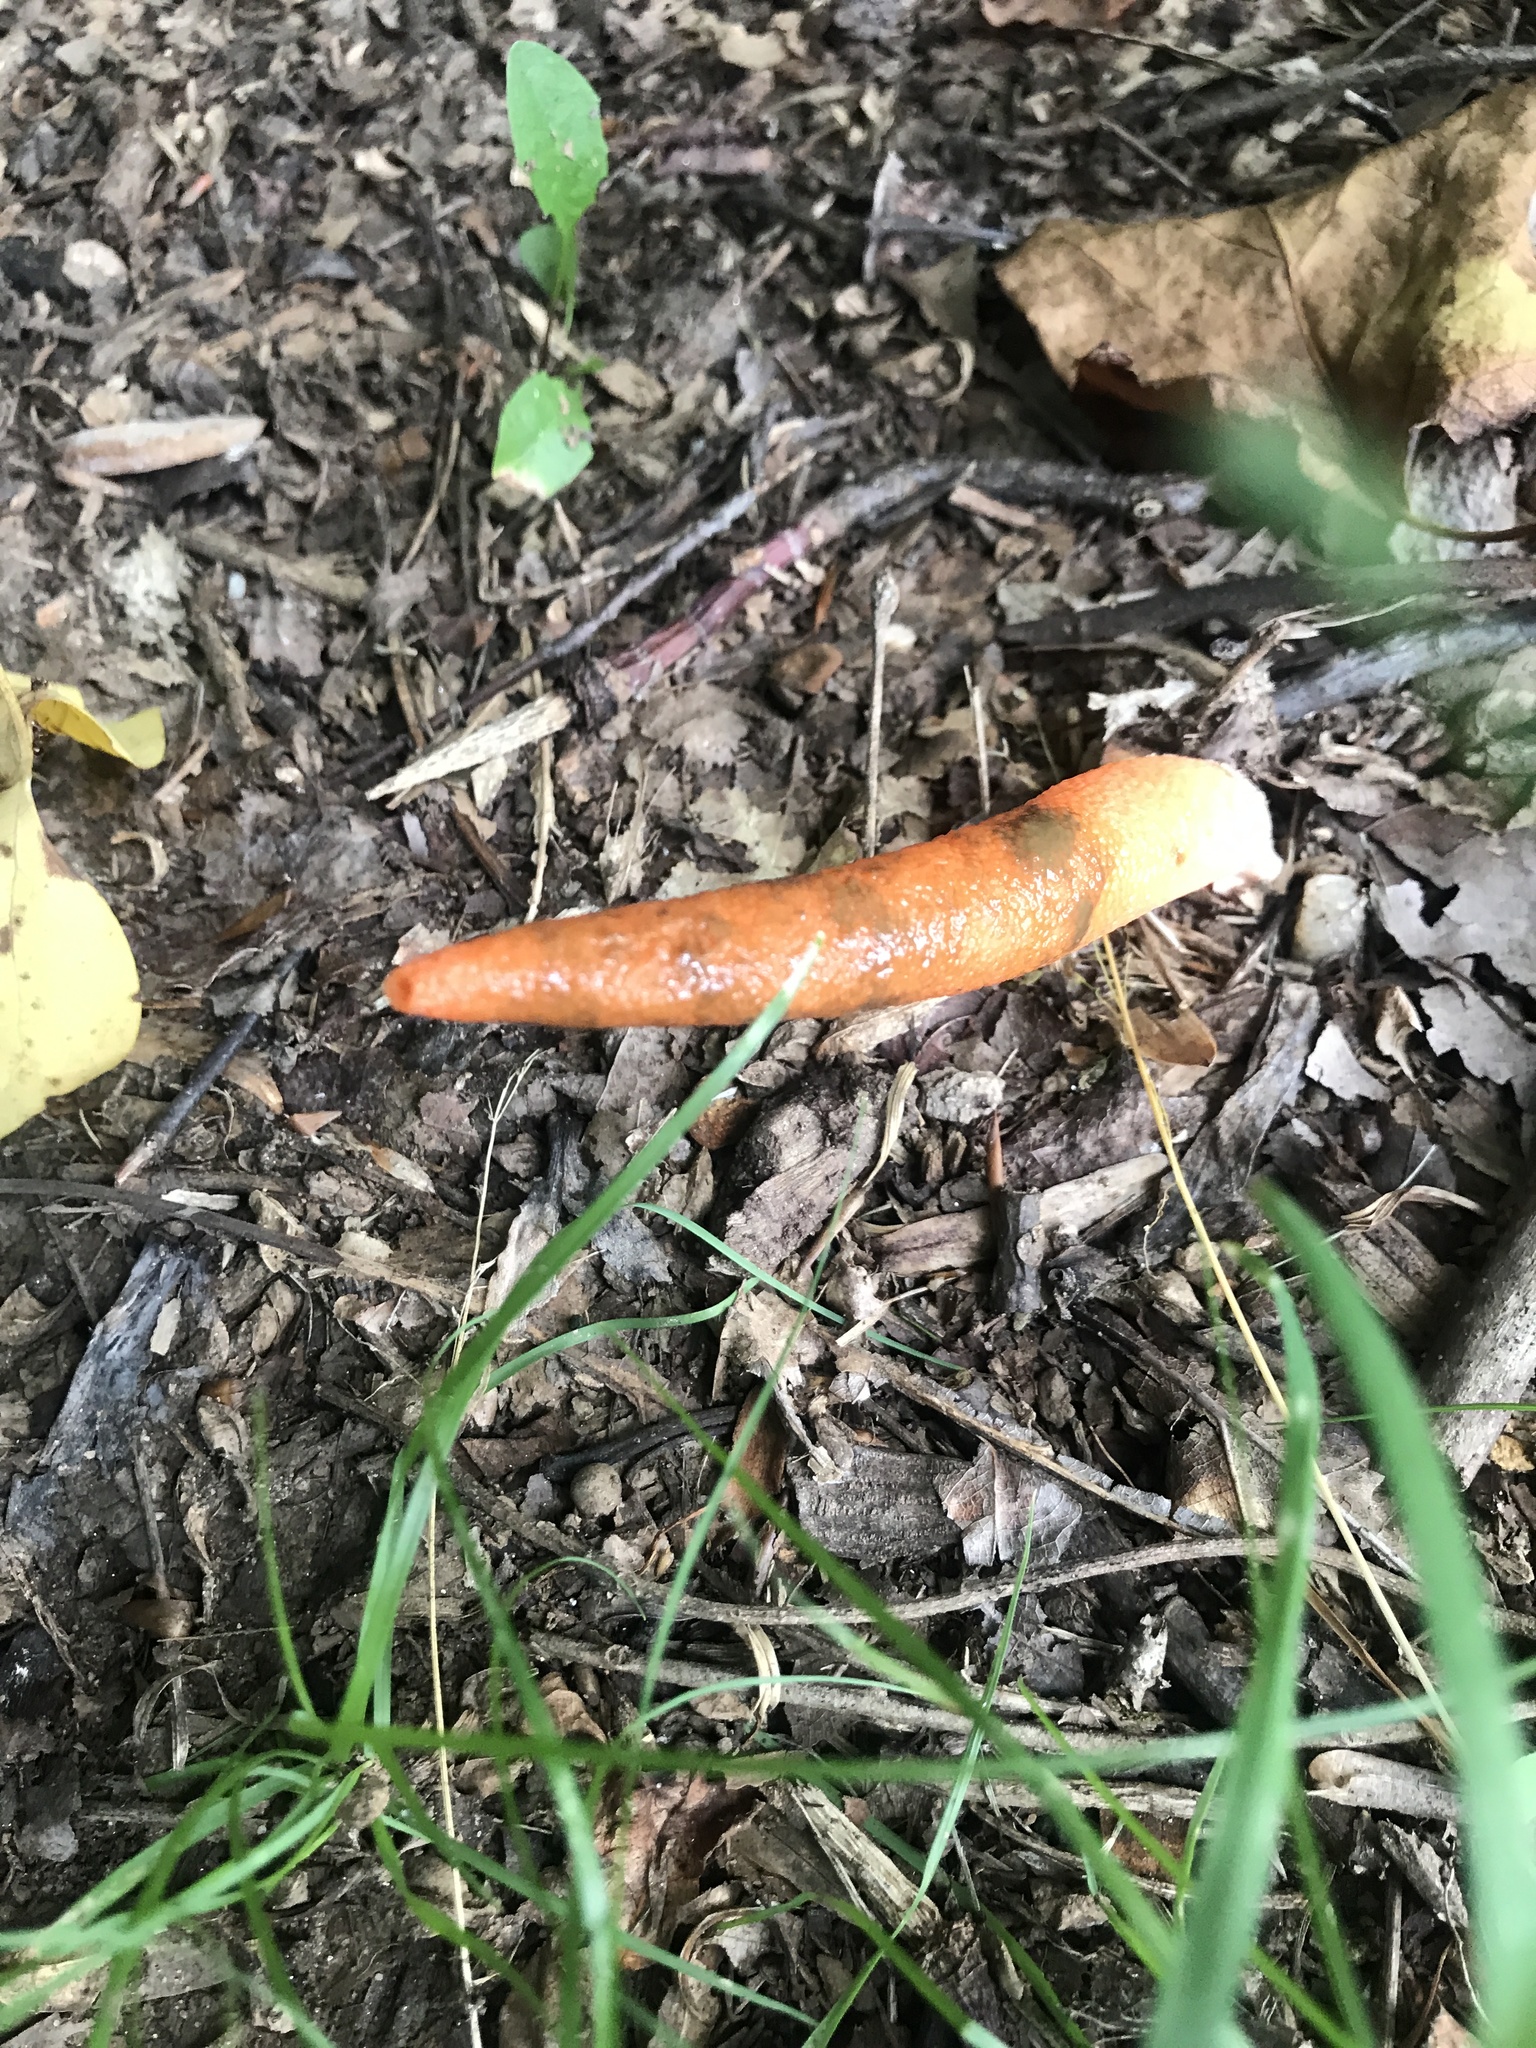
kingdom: Fungi
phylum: Basidiomycota
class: Agaricomycetes
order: Phallales
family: Phallaceae
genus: Mutinus
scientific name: Mutinus elegans
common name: Devil's dipstick
